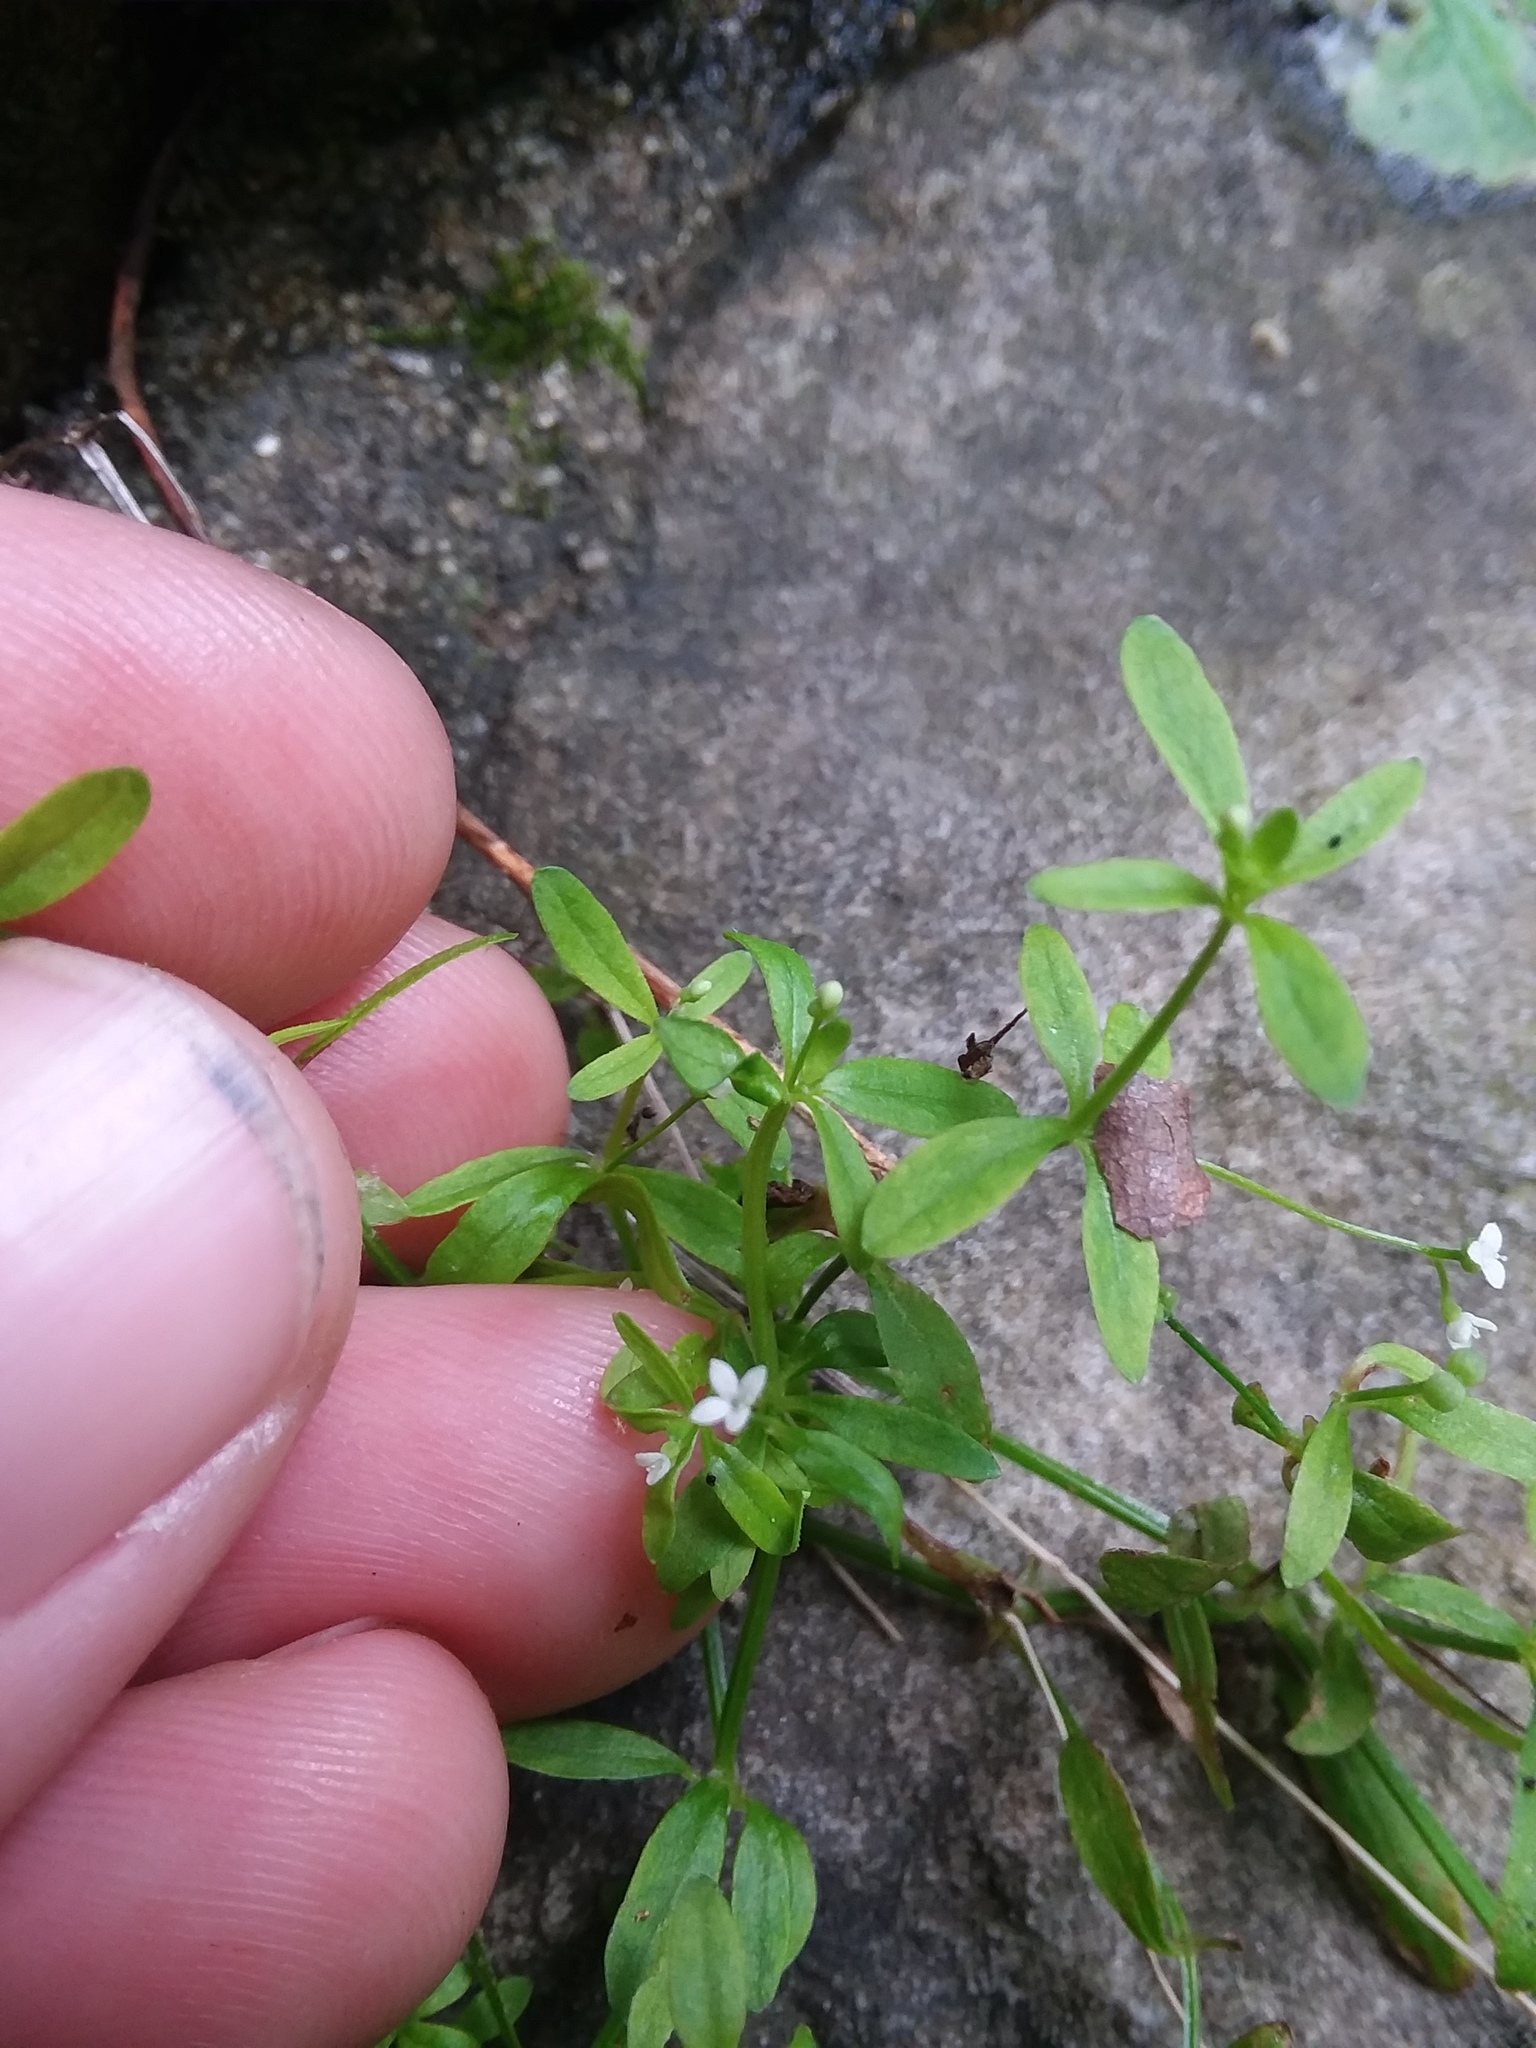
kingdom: Plantae
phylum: Tracheophyta
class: Magnoliopsida
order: Gentianales
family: Rubiaceae
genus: Galium
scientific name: Galium obtusum
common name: Blunt-leaved bedstraw
